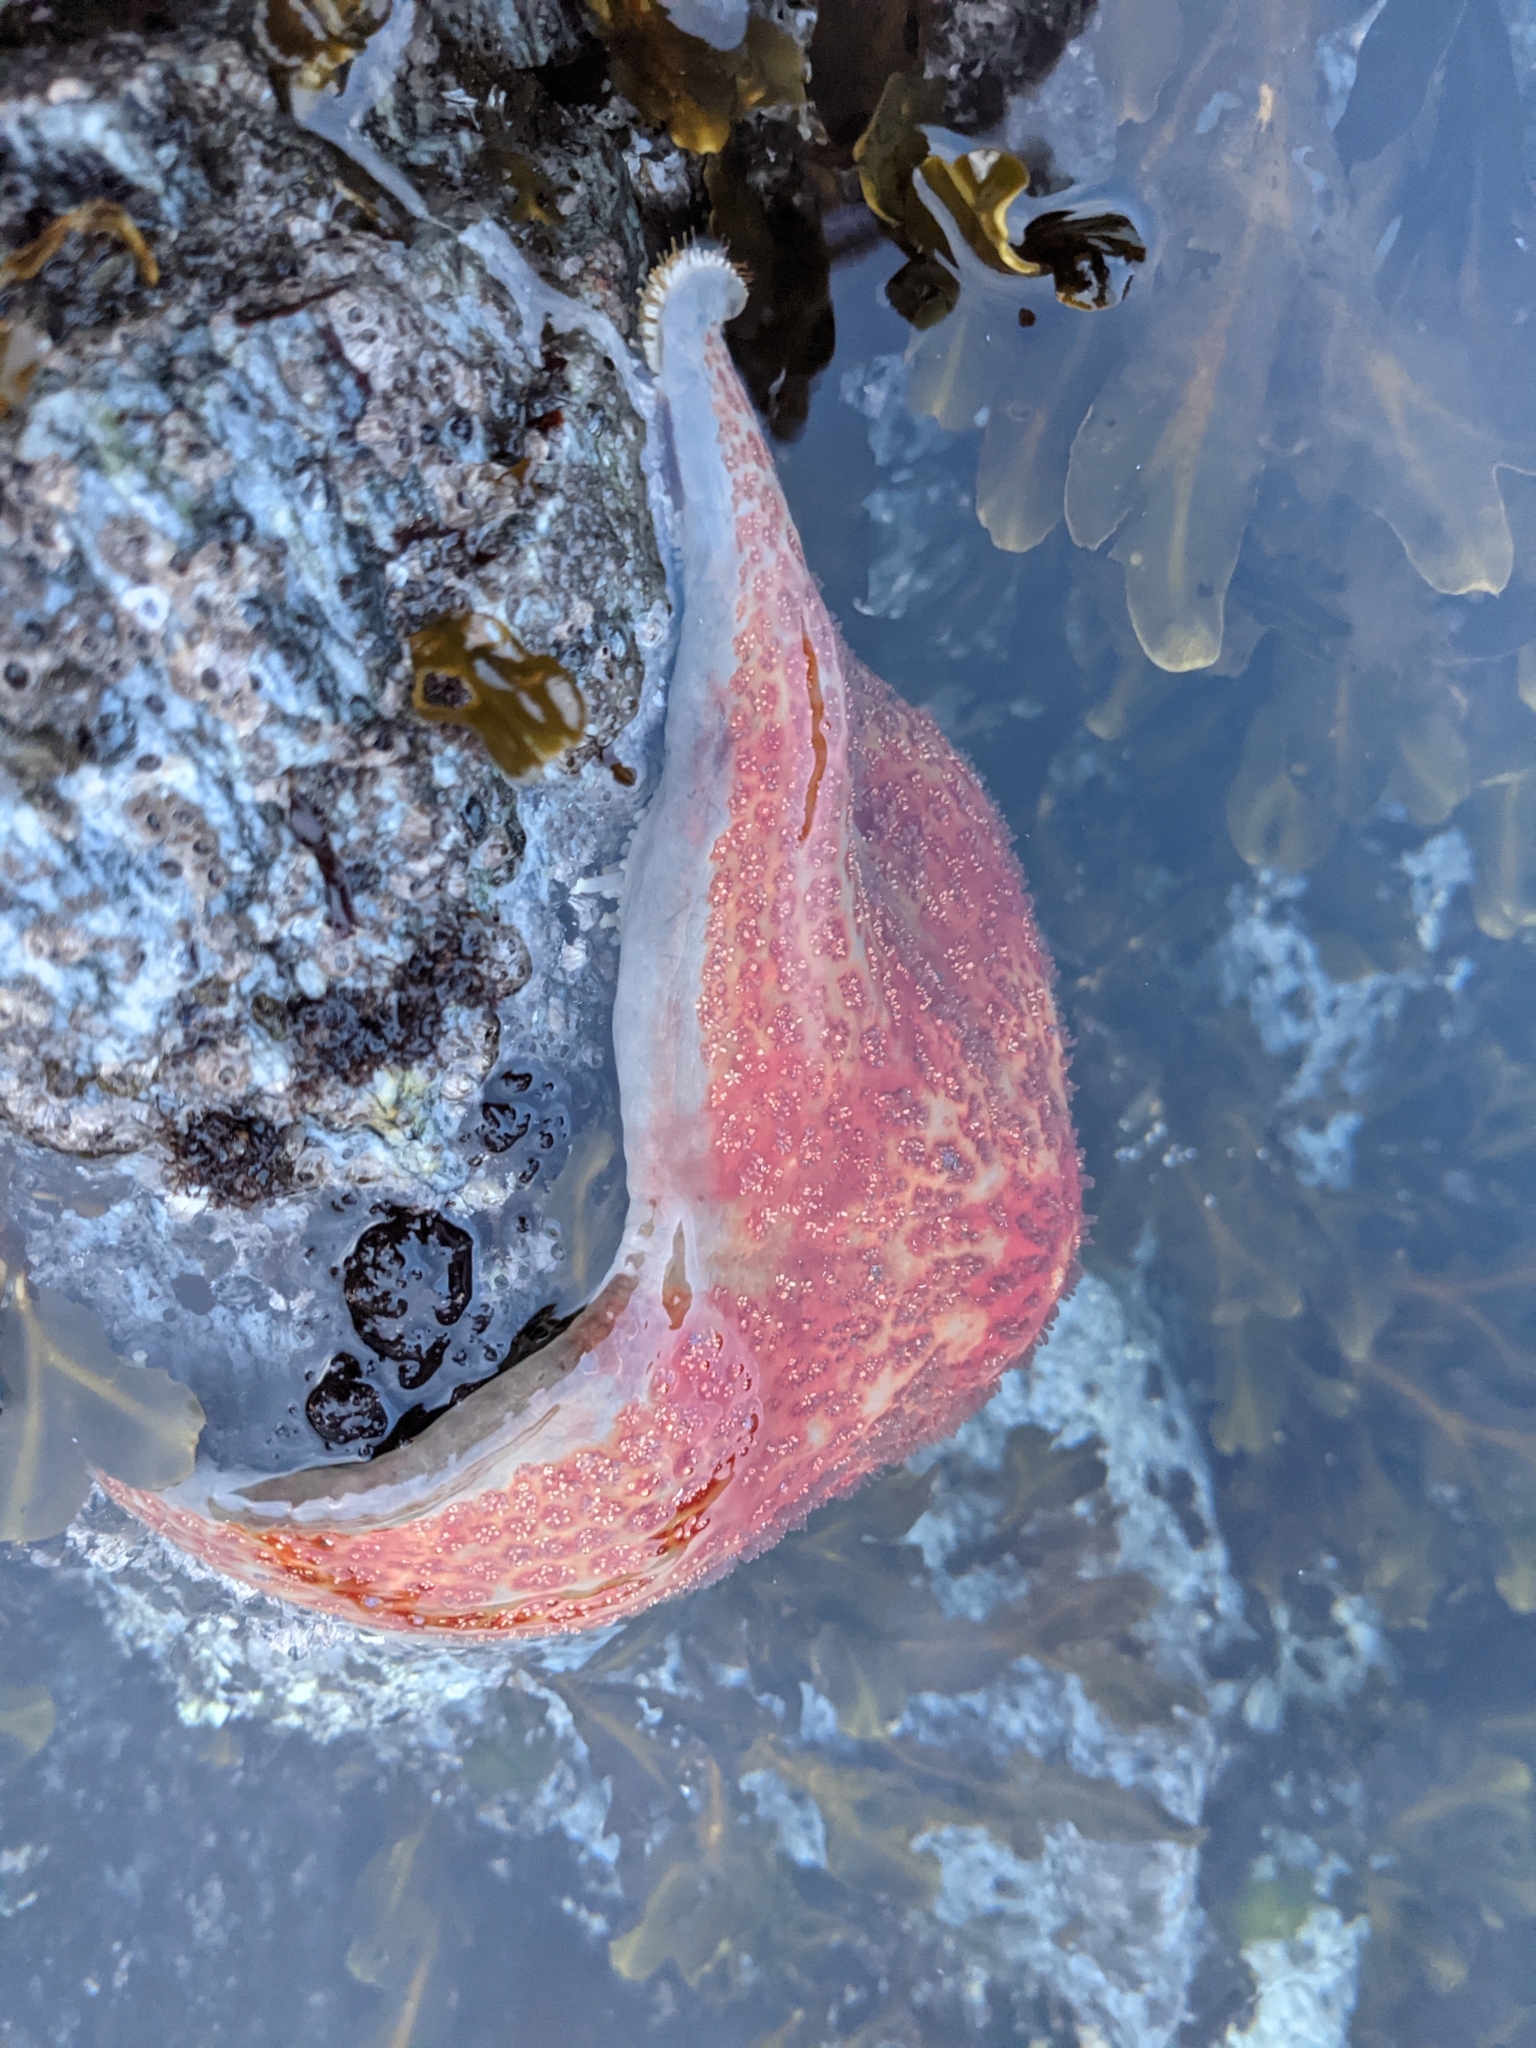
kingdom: Animalia
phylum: Echinodermata
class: Asteroidea
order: Valvatida
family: Asteropseidae
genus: Dermasterias
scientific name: Dermasterias imbricata
